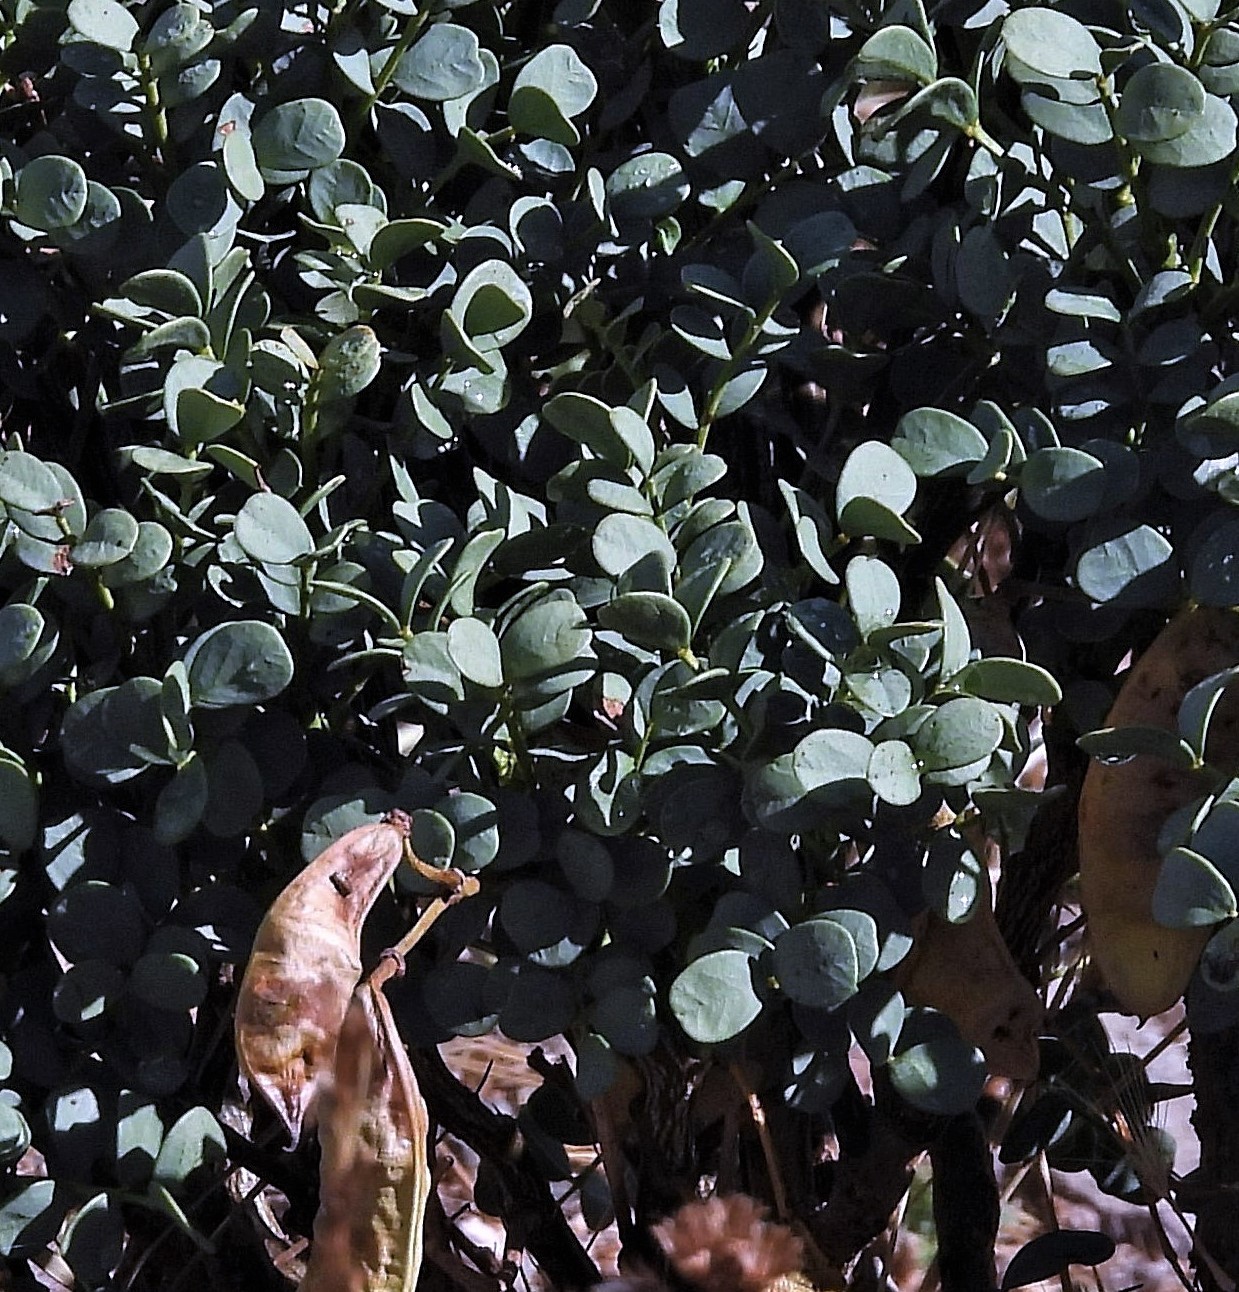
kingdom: Plantae
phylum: Tracheophyta
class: Magnoliopsida
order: Fabales
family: Fabaceae
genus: Senna
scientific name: Senna arnottiana
